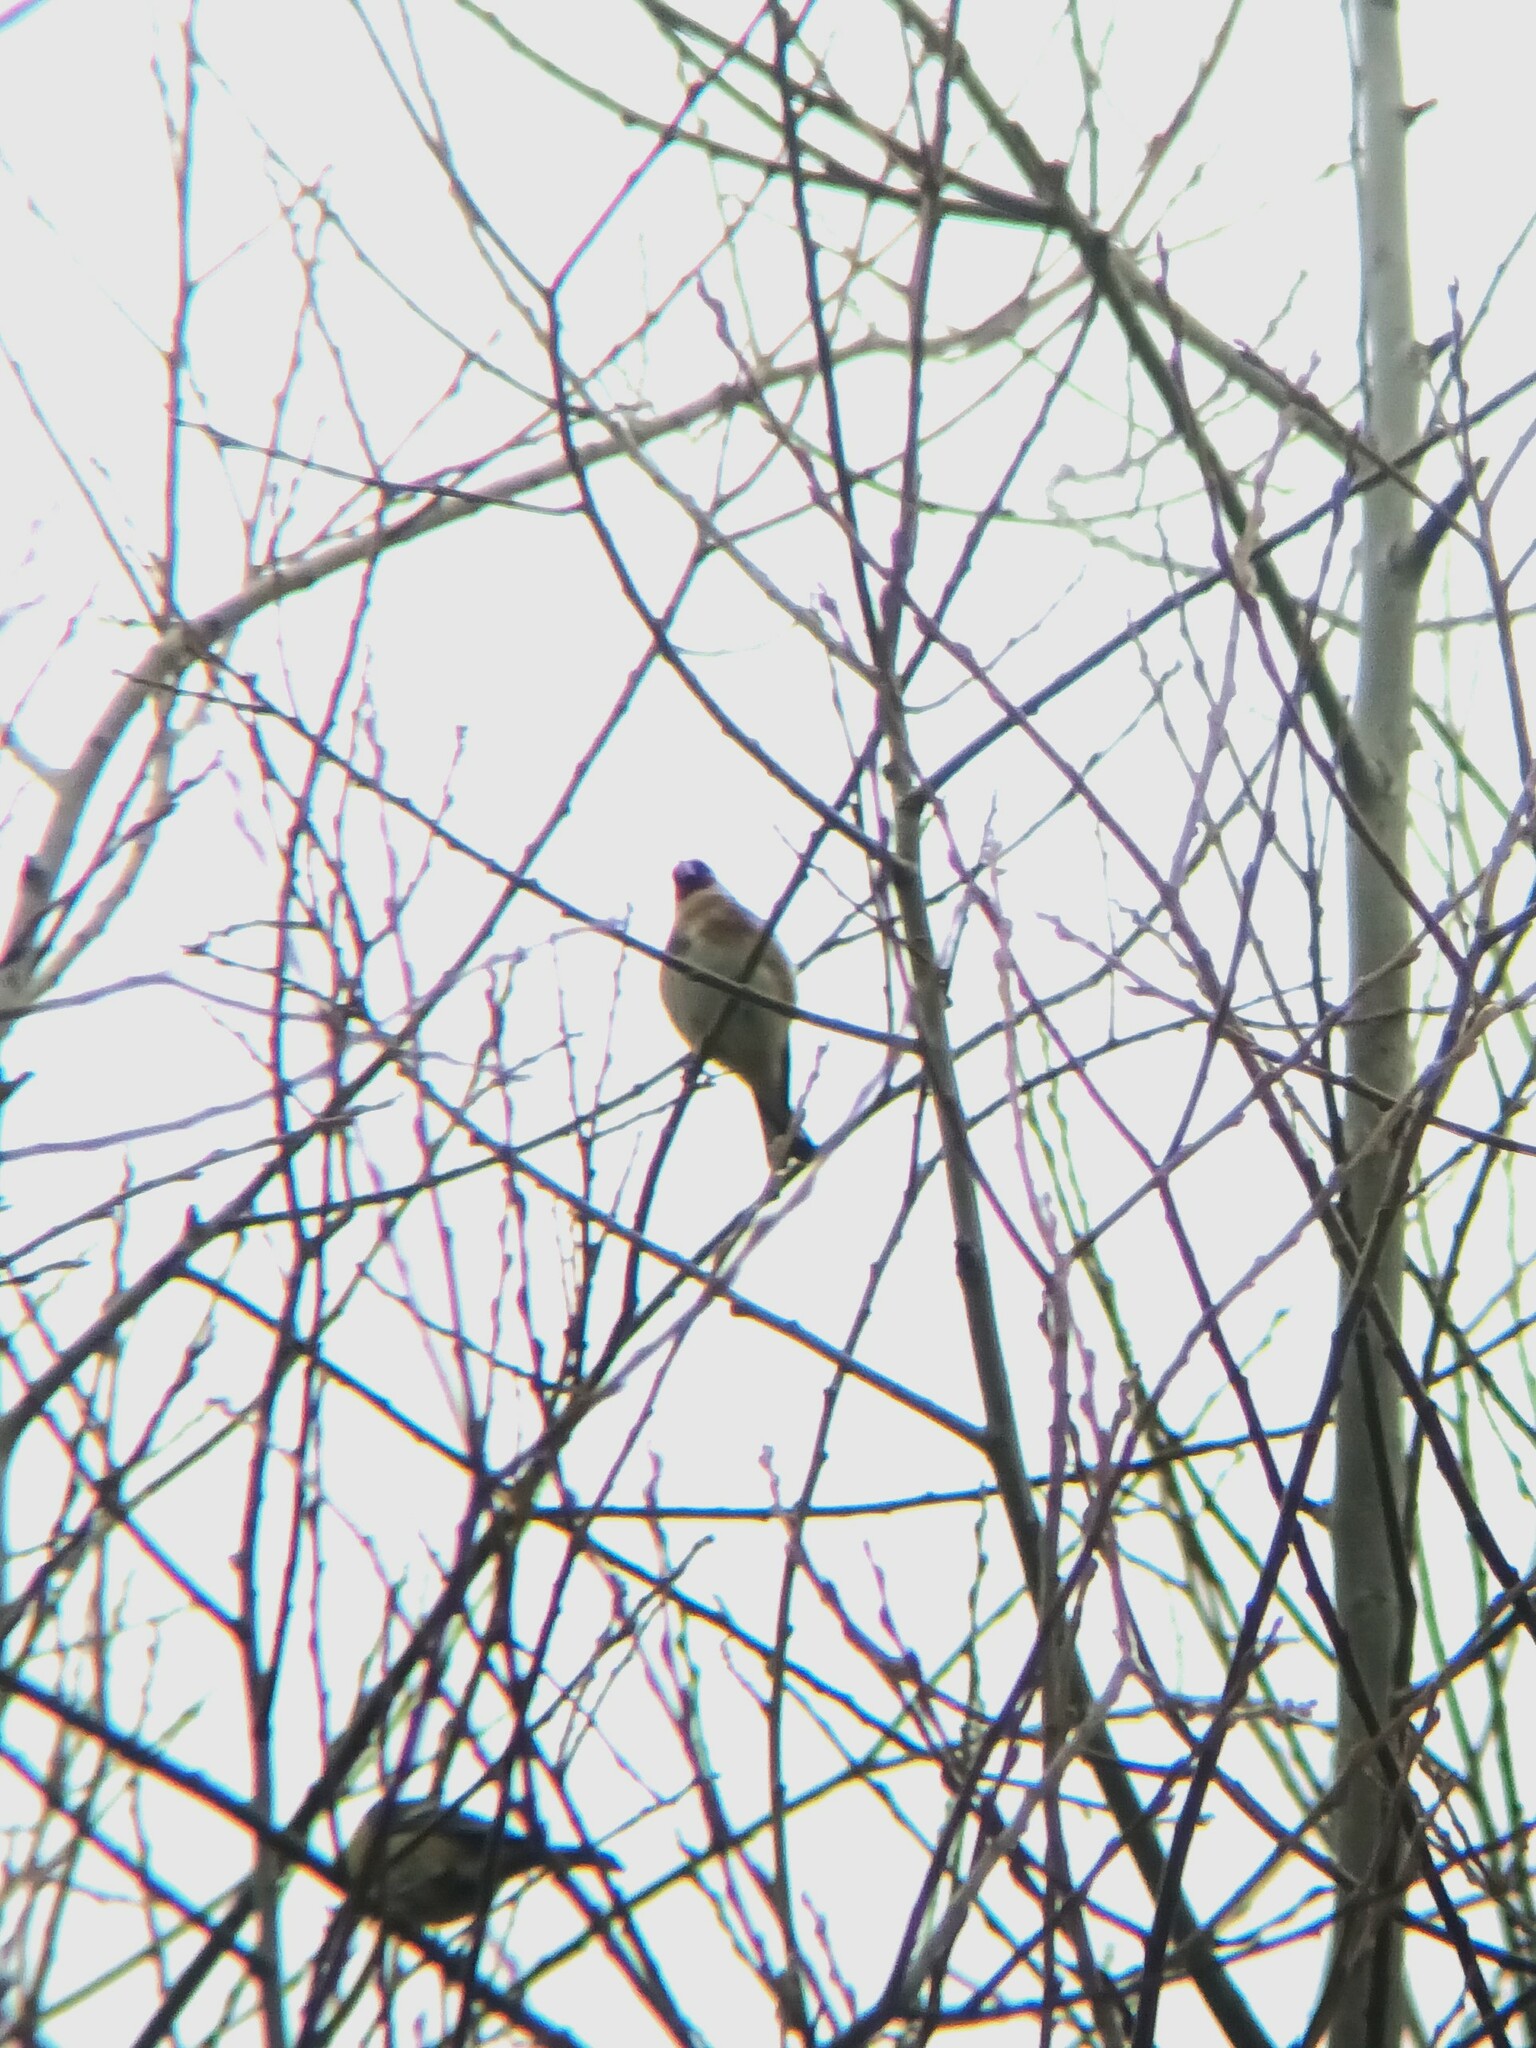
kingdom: Animalia
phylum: Chordata
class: Aves
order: Passeriformes
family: Fringillidae
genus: Carduelis
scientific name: Carduelis carduelis
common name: European goldfinch
